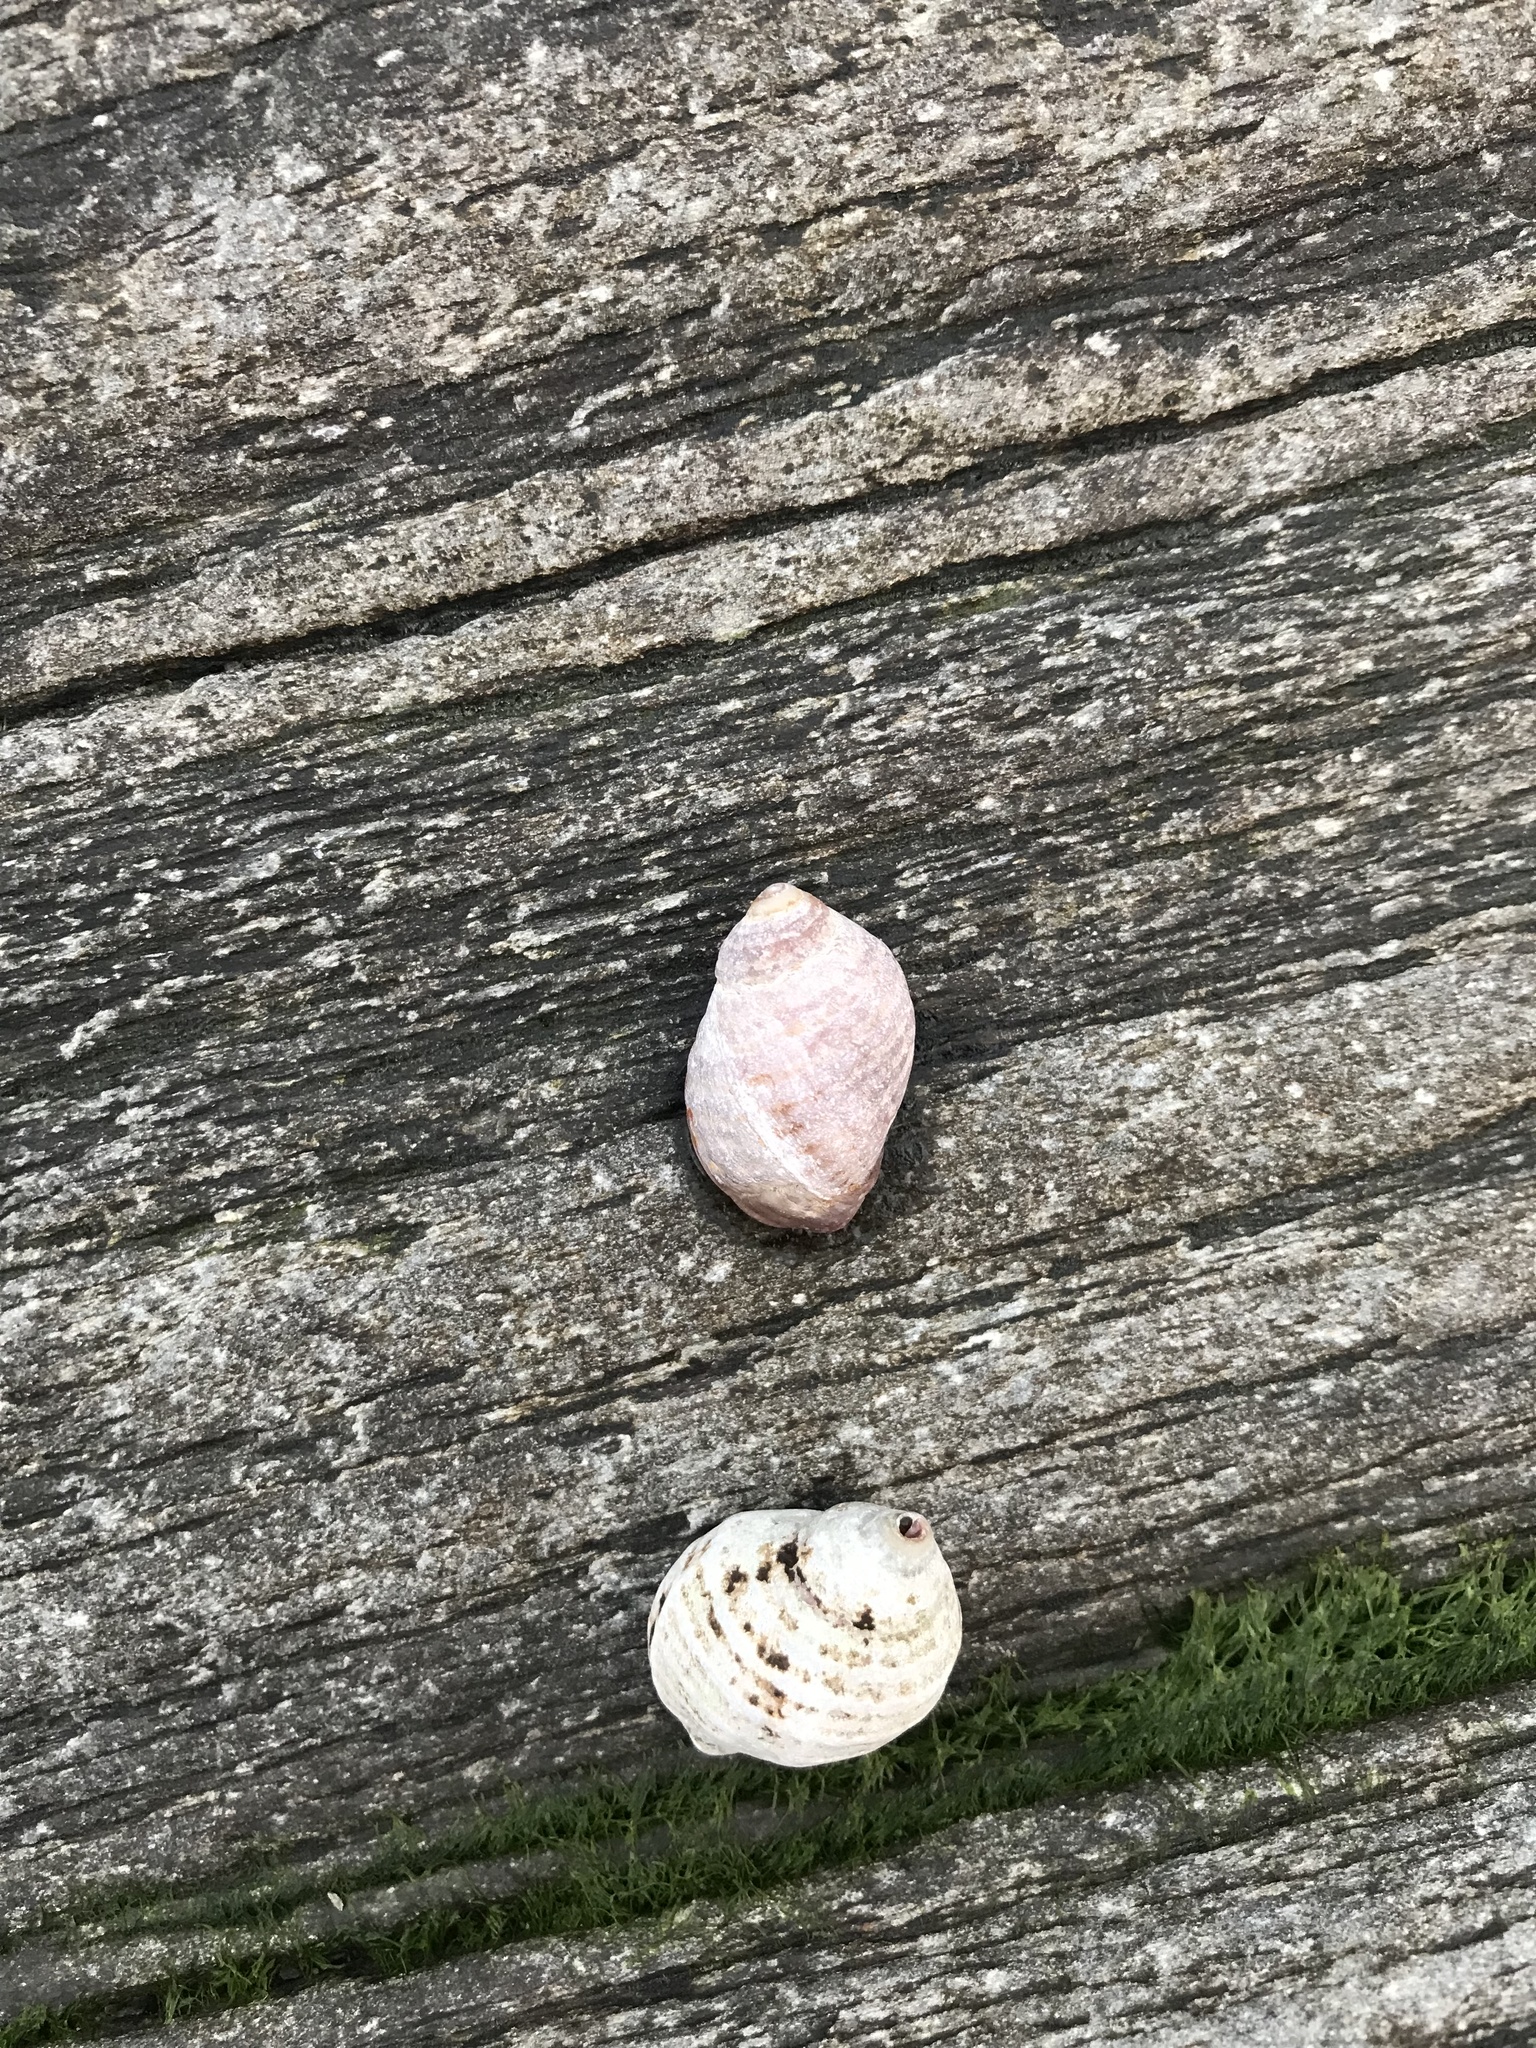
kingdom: Animalia
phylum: Mollusca
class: Gastropoda
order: Neogastropoda
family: Muricidae
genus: Nucella
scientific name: Nucella lapillus
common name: Dog whelk
